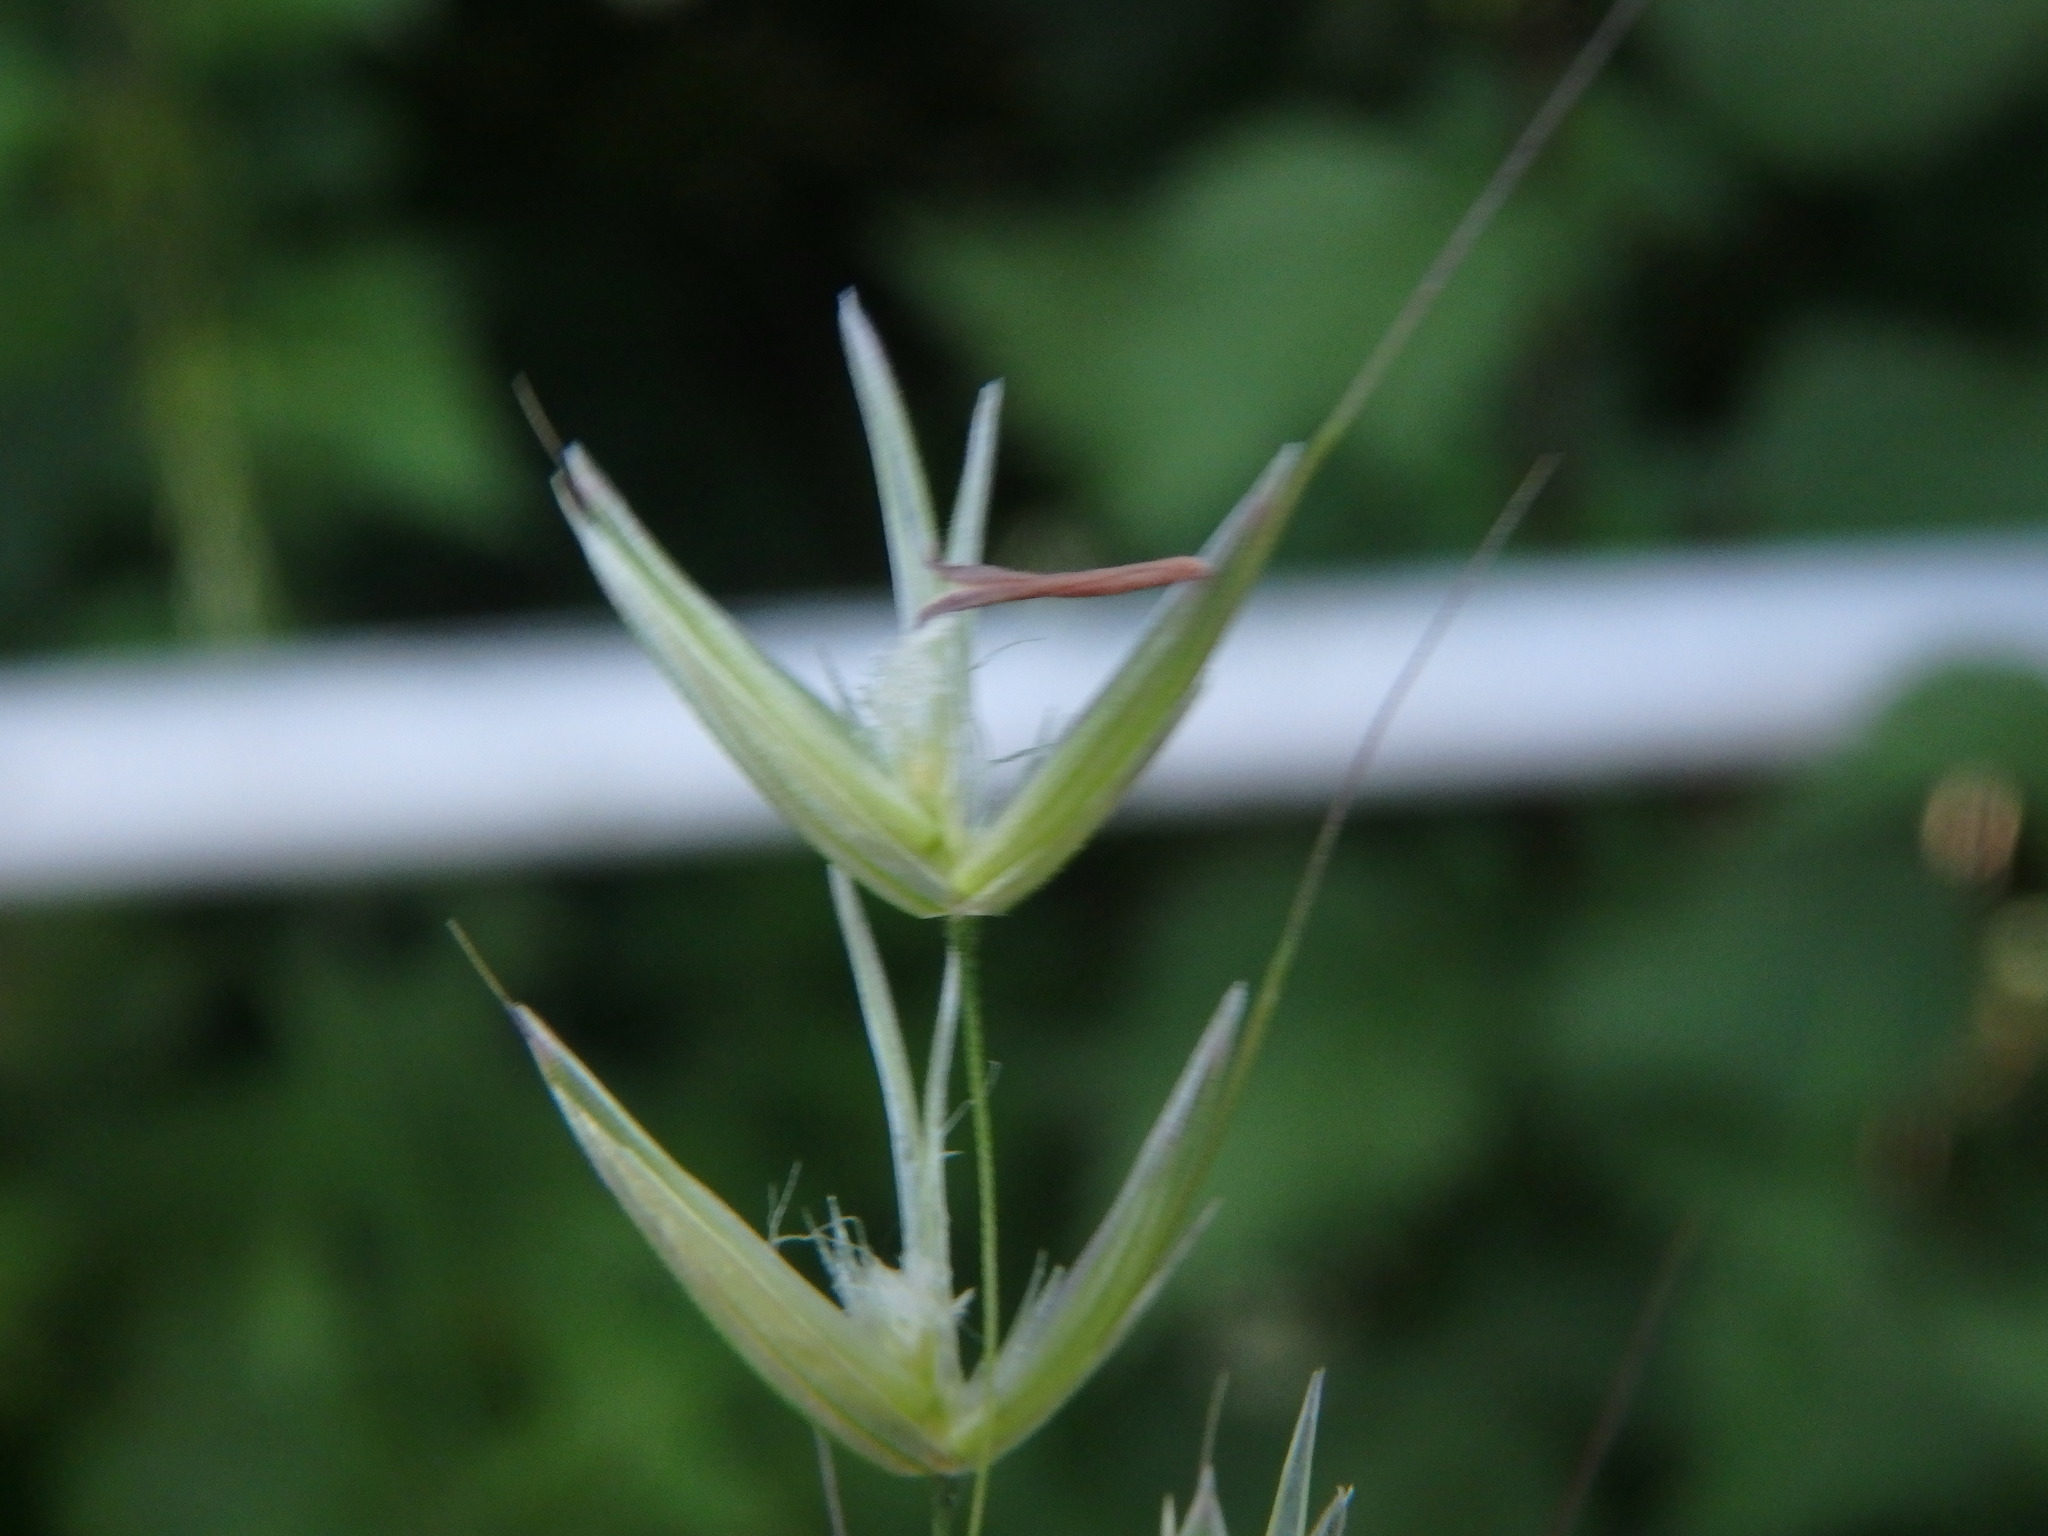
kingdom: Plantae
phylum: Tracheophyta
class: Liliopsida
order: Poales
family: Poaceae
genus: Arrhenatherum
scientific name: Arrhenatherum elatius
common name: Tall oatgrass
